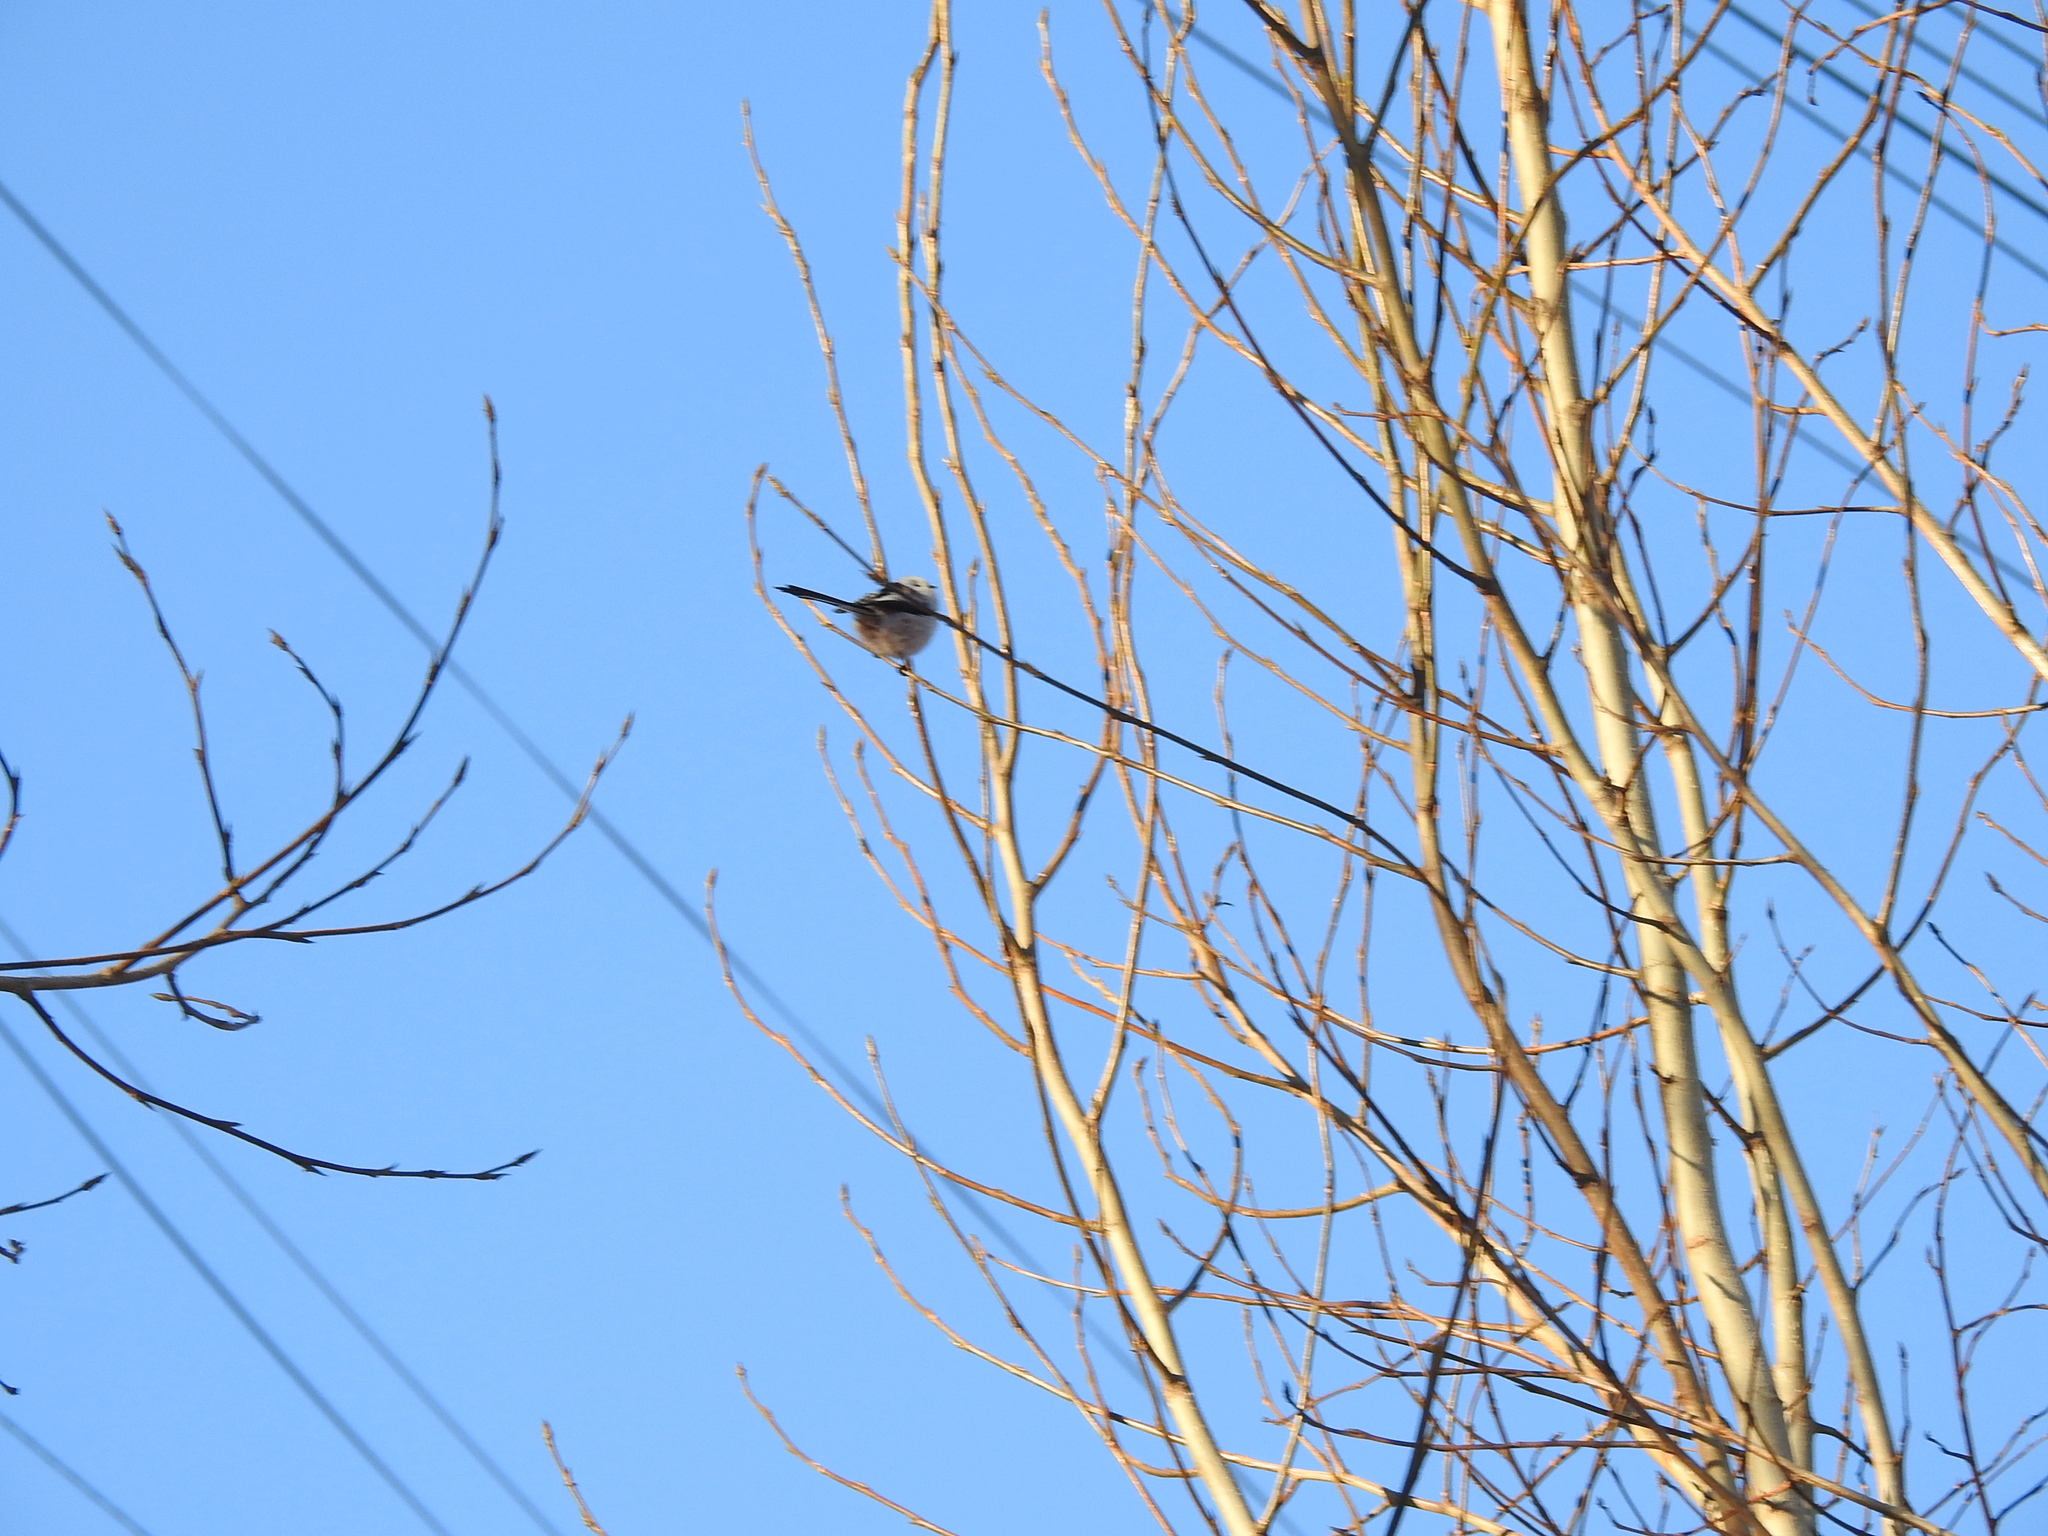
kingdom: Animalia
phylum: Chordata
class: Aves
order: Passeriformes
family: Aegithalidae
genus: Aegithalos
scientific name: Aegithalos caudatus
